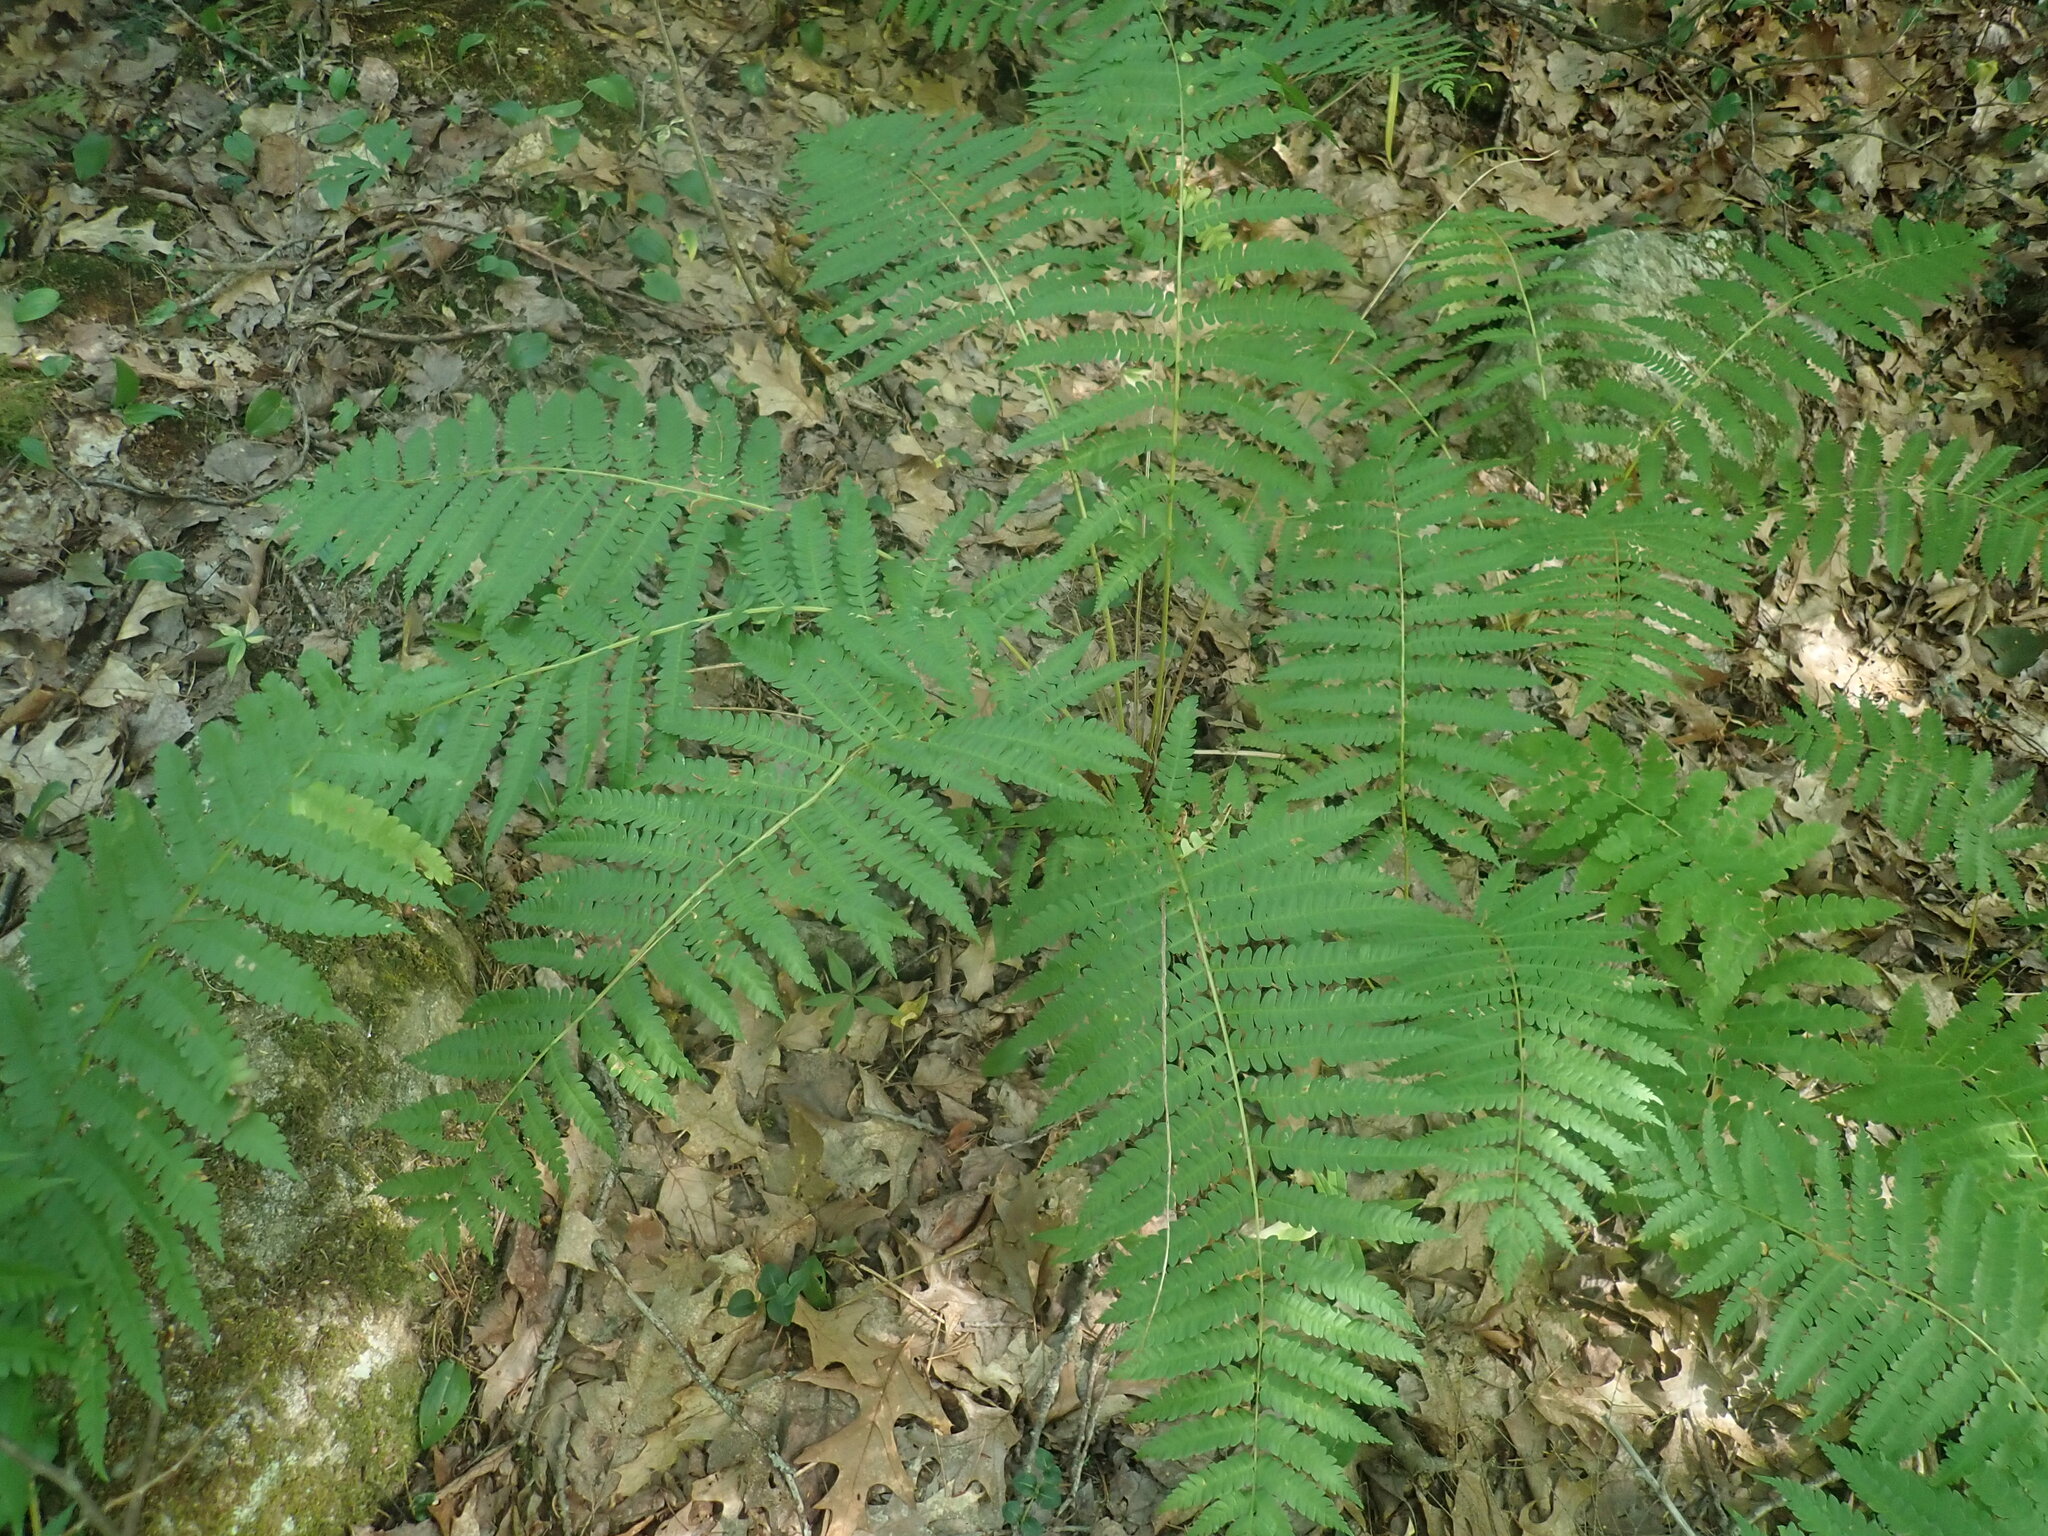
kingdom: Plantae
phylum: Tracheophyta
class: Polypodiopsida
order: Osmundales
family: Osmundaceae
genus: Osmundastrum
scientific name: Osmundastrum cinnamomeum
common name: Cinnamon fern
